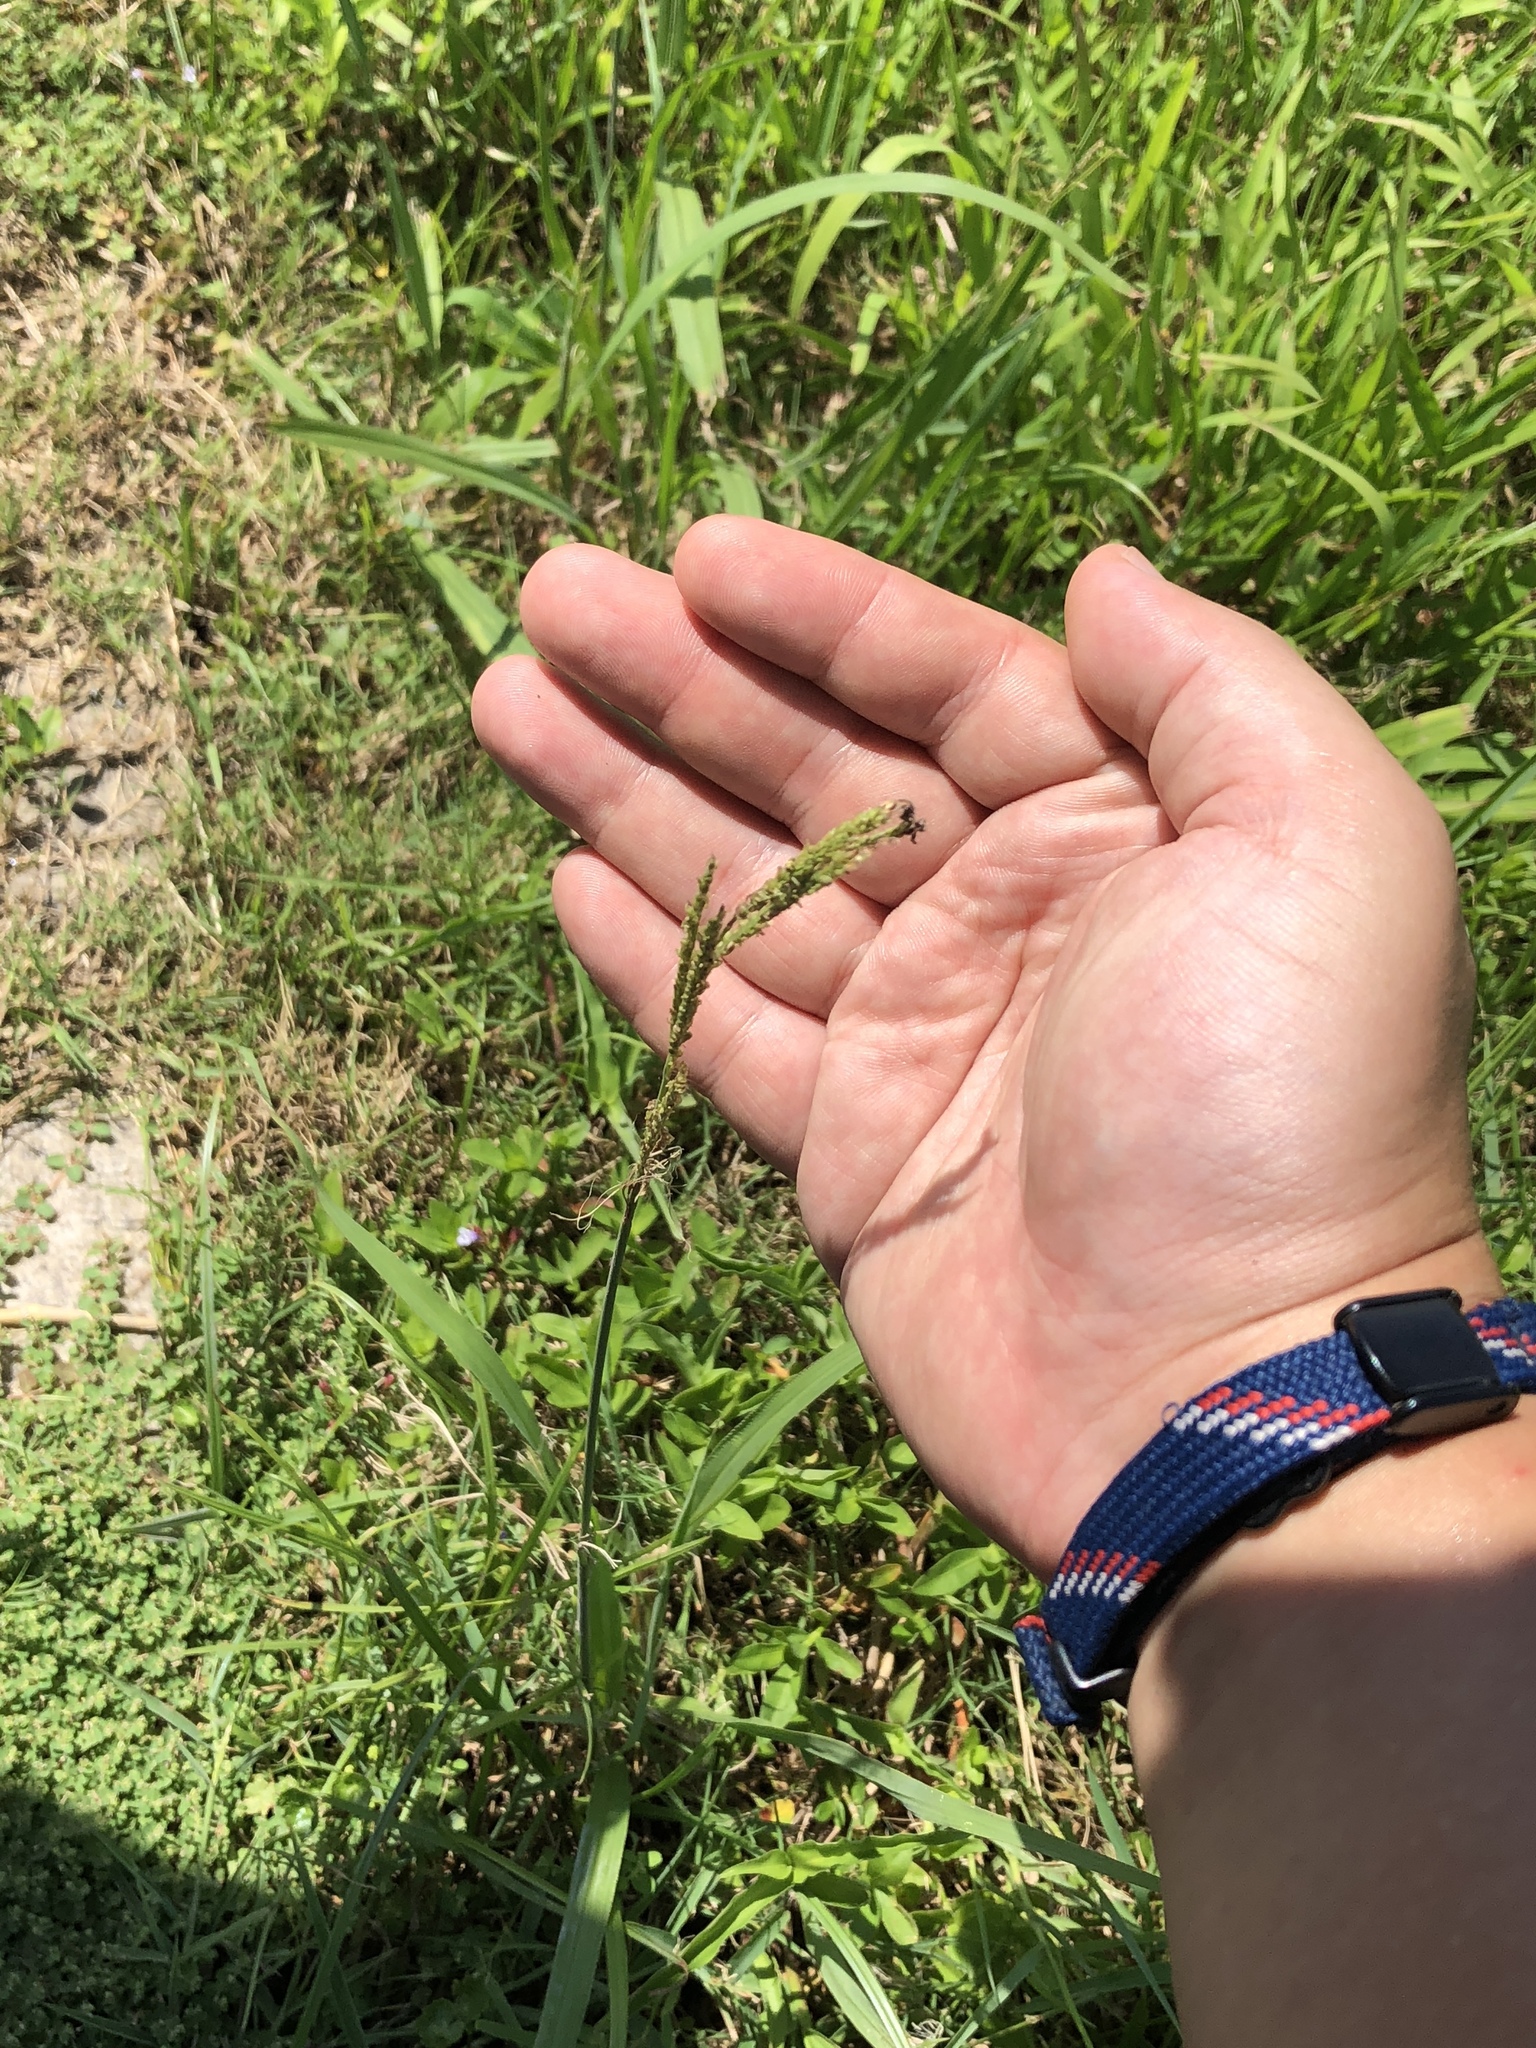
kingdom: Plantae
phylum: Tracheophyta
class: Liliopsida
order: Poales
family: Poaceae
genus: Paspalum
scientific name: Paspalum urvillei
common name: Vasey's grass
